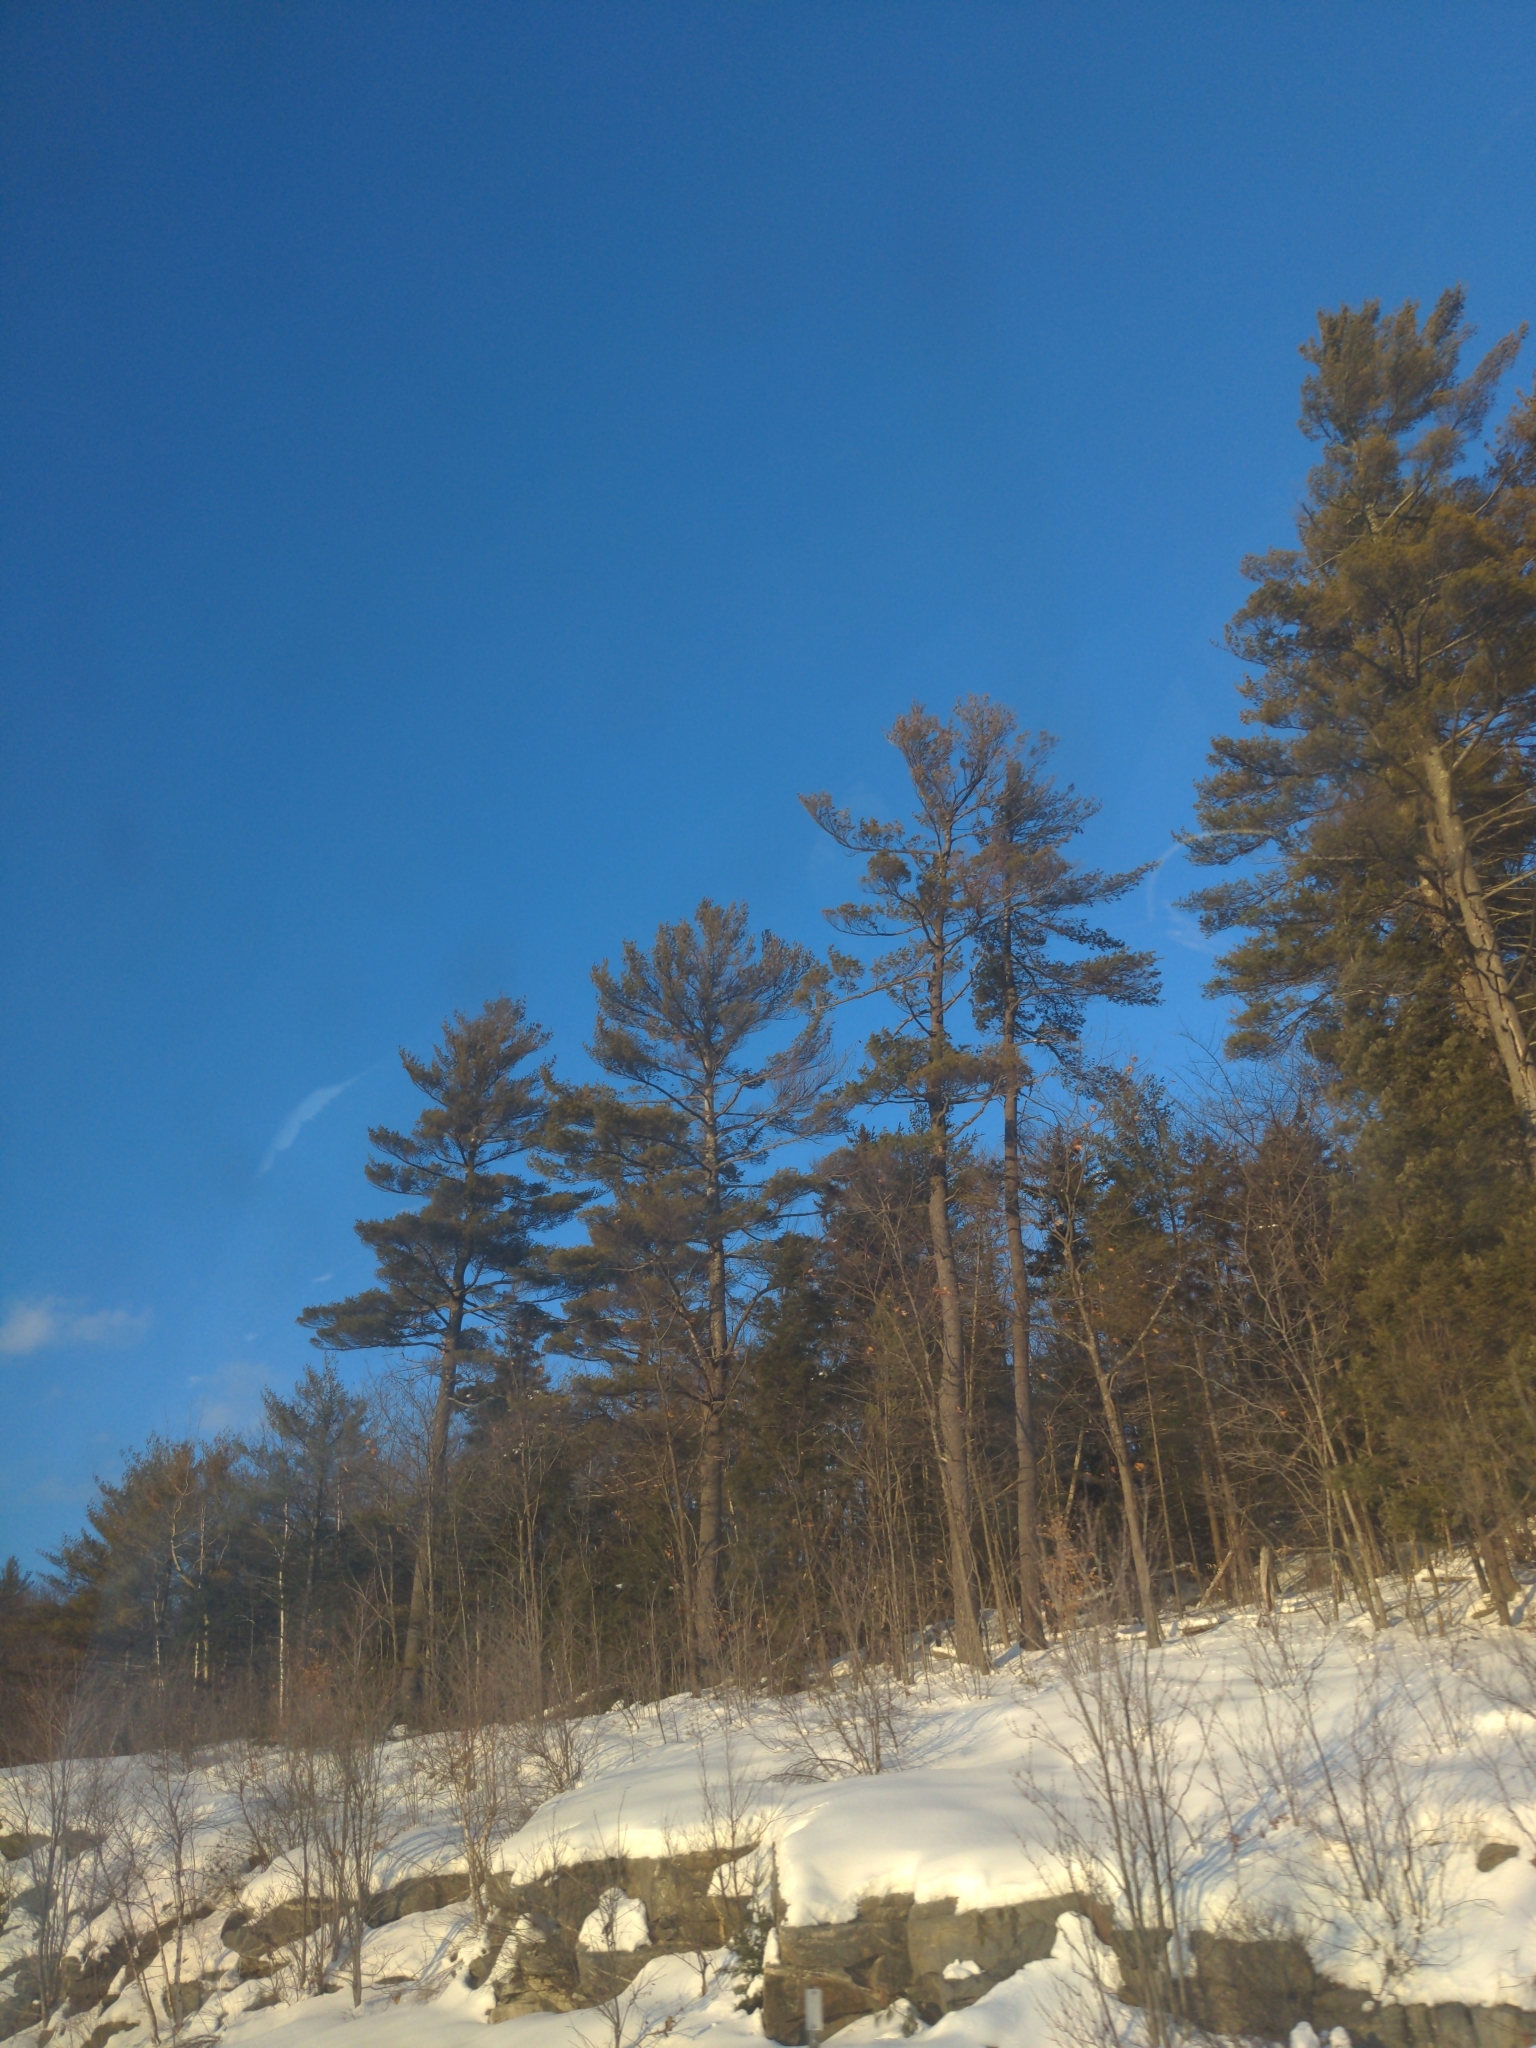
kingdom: Plantae
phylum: Tracheophyta
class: Pinopsida
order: Pinales
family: Pinaceae
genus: Pinus
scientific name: Pinus strobus
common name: Weymouth pine
